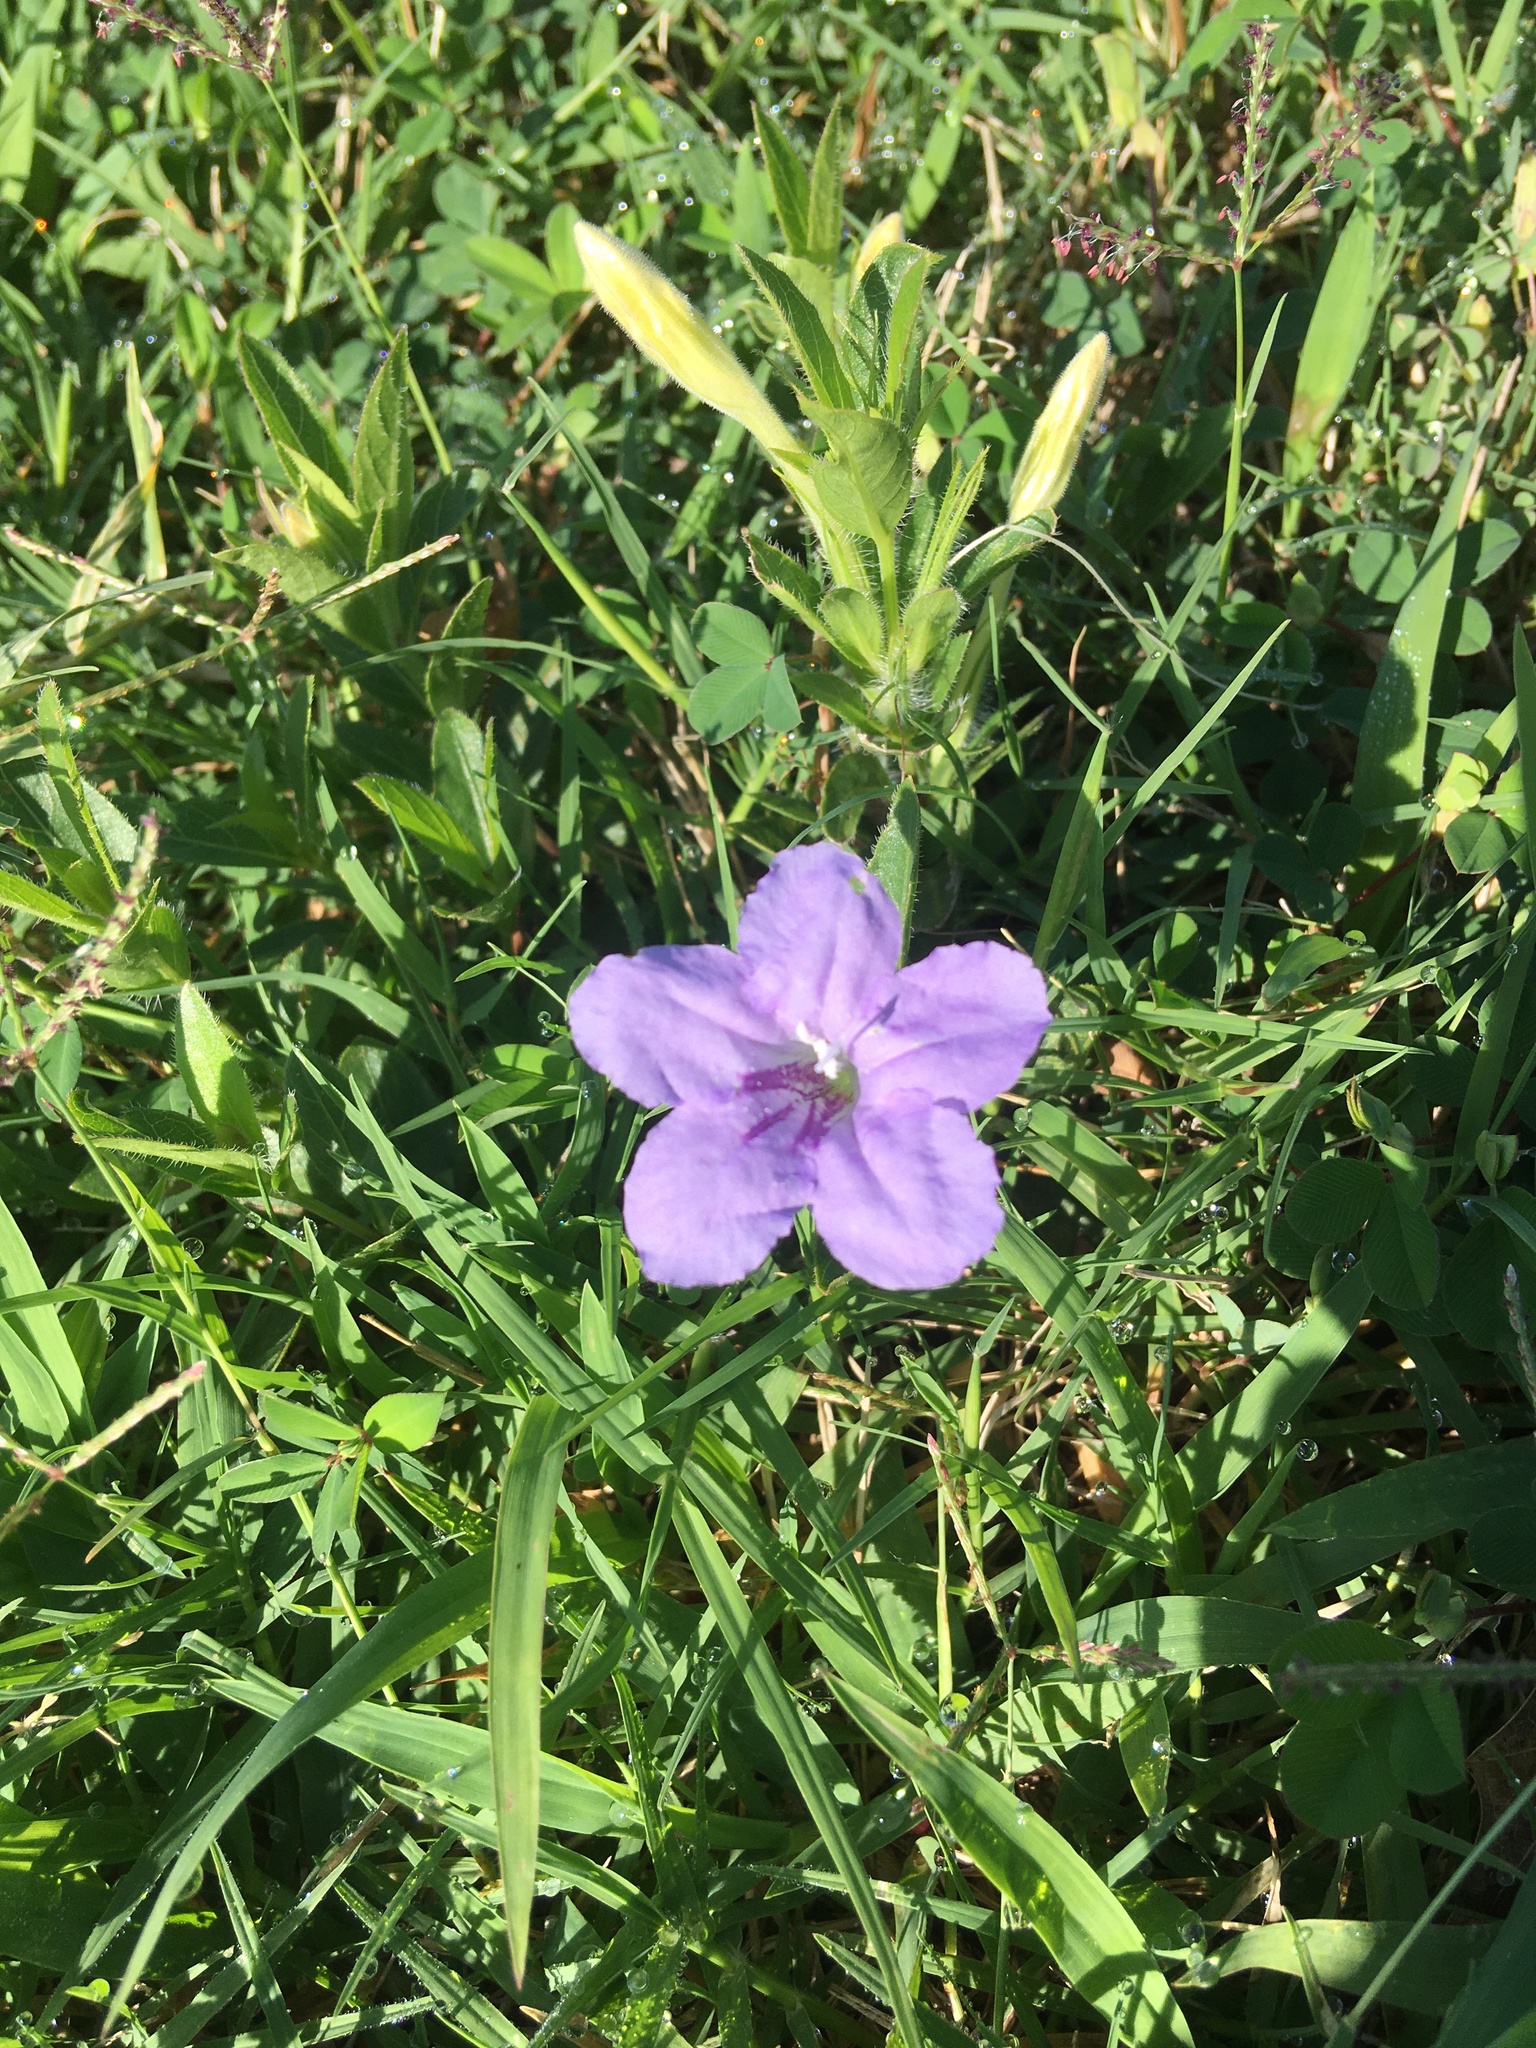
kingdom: Plantae
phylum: Tracheophyta
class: Magnoliopsida
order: Lamiales
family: Acanthaceae
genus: Ruellia
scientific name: Ruellia humilis
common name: Fringe-leaf ruellia
